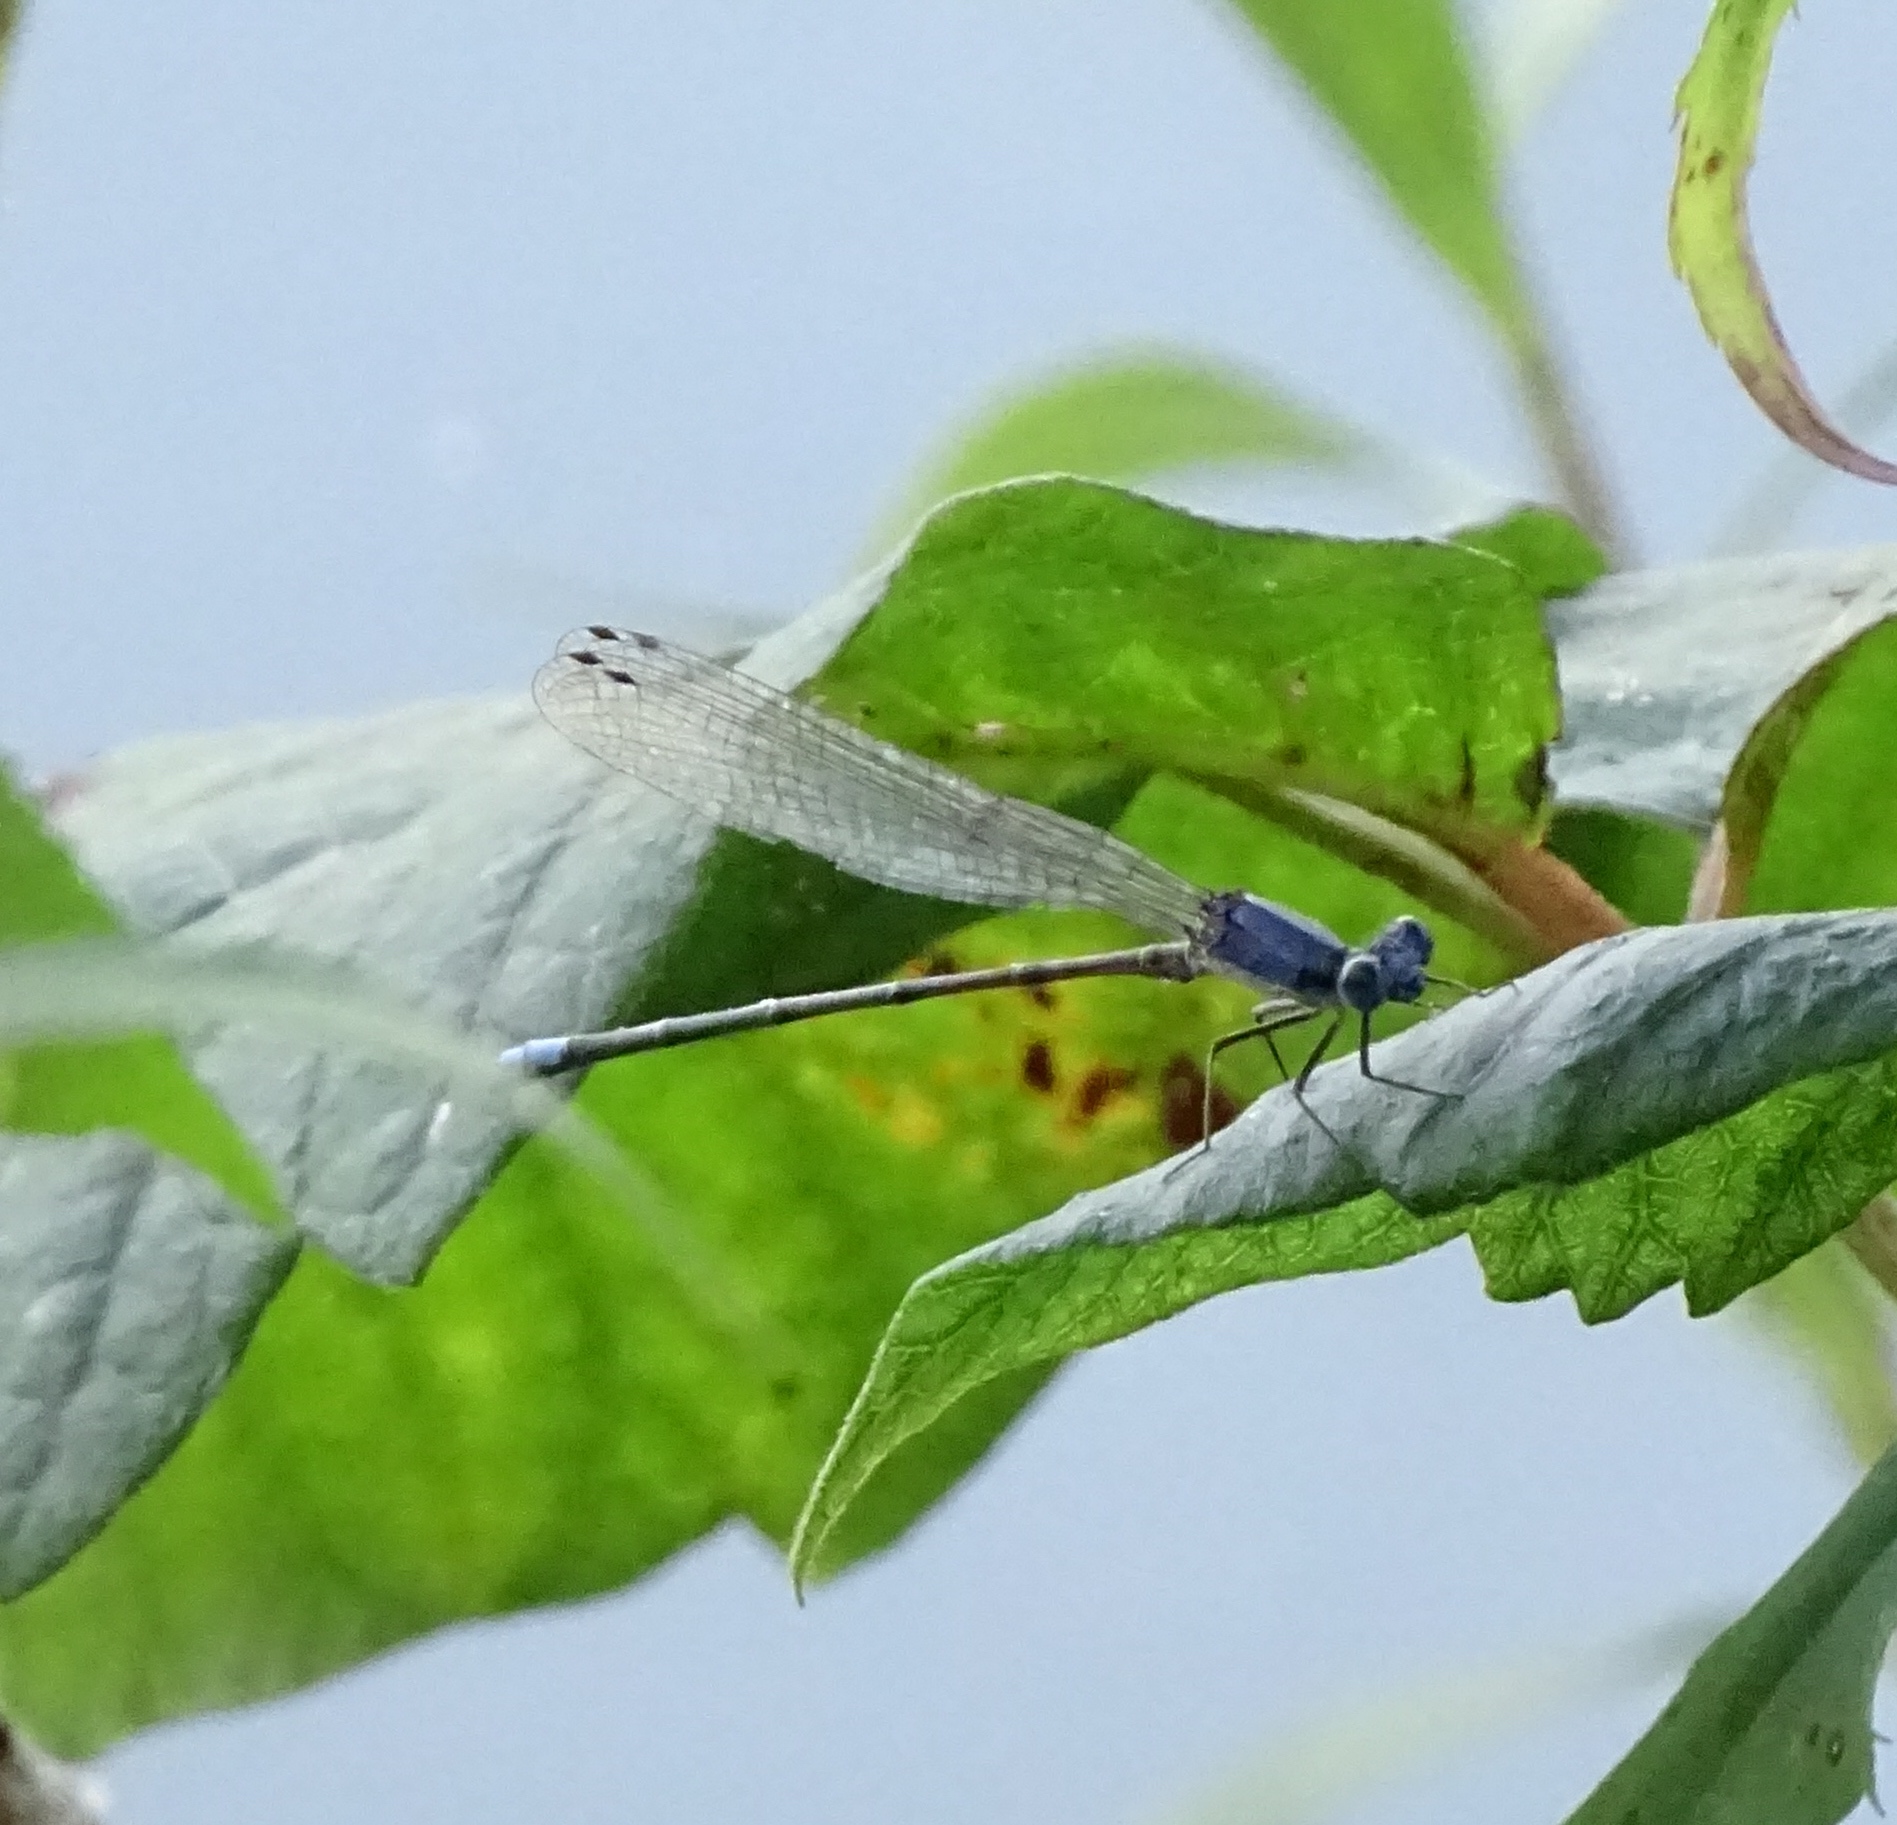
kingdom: Animalia
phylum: Arthropoda
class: Insecta
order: Odonata
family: Coenagrionidae
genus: Argia
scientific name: Argia apicalis
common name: Blue-fronted dancer
